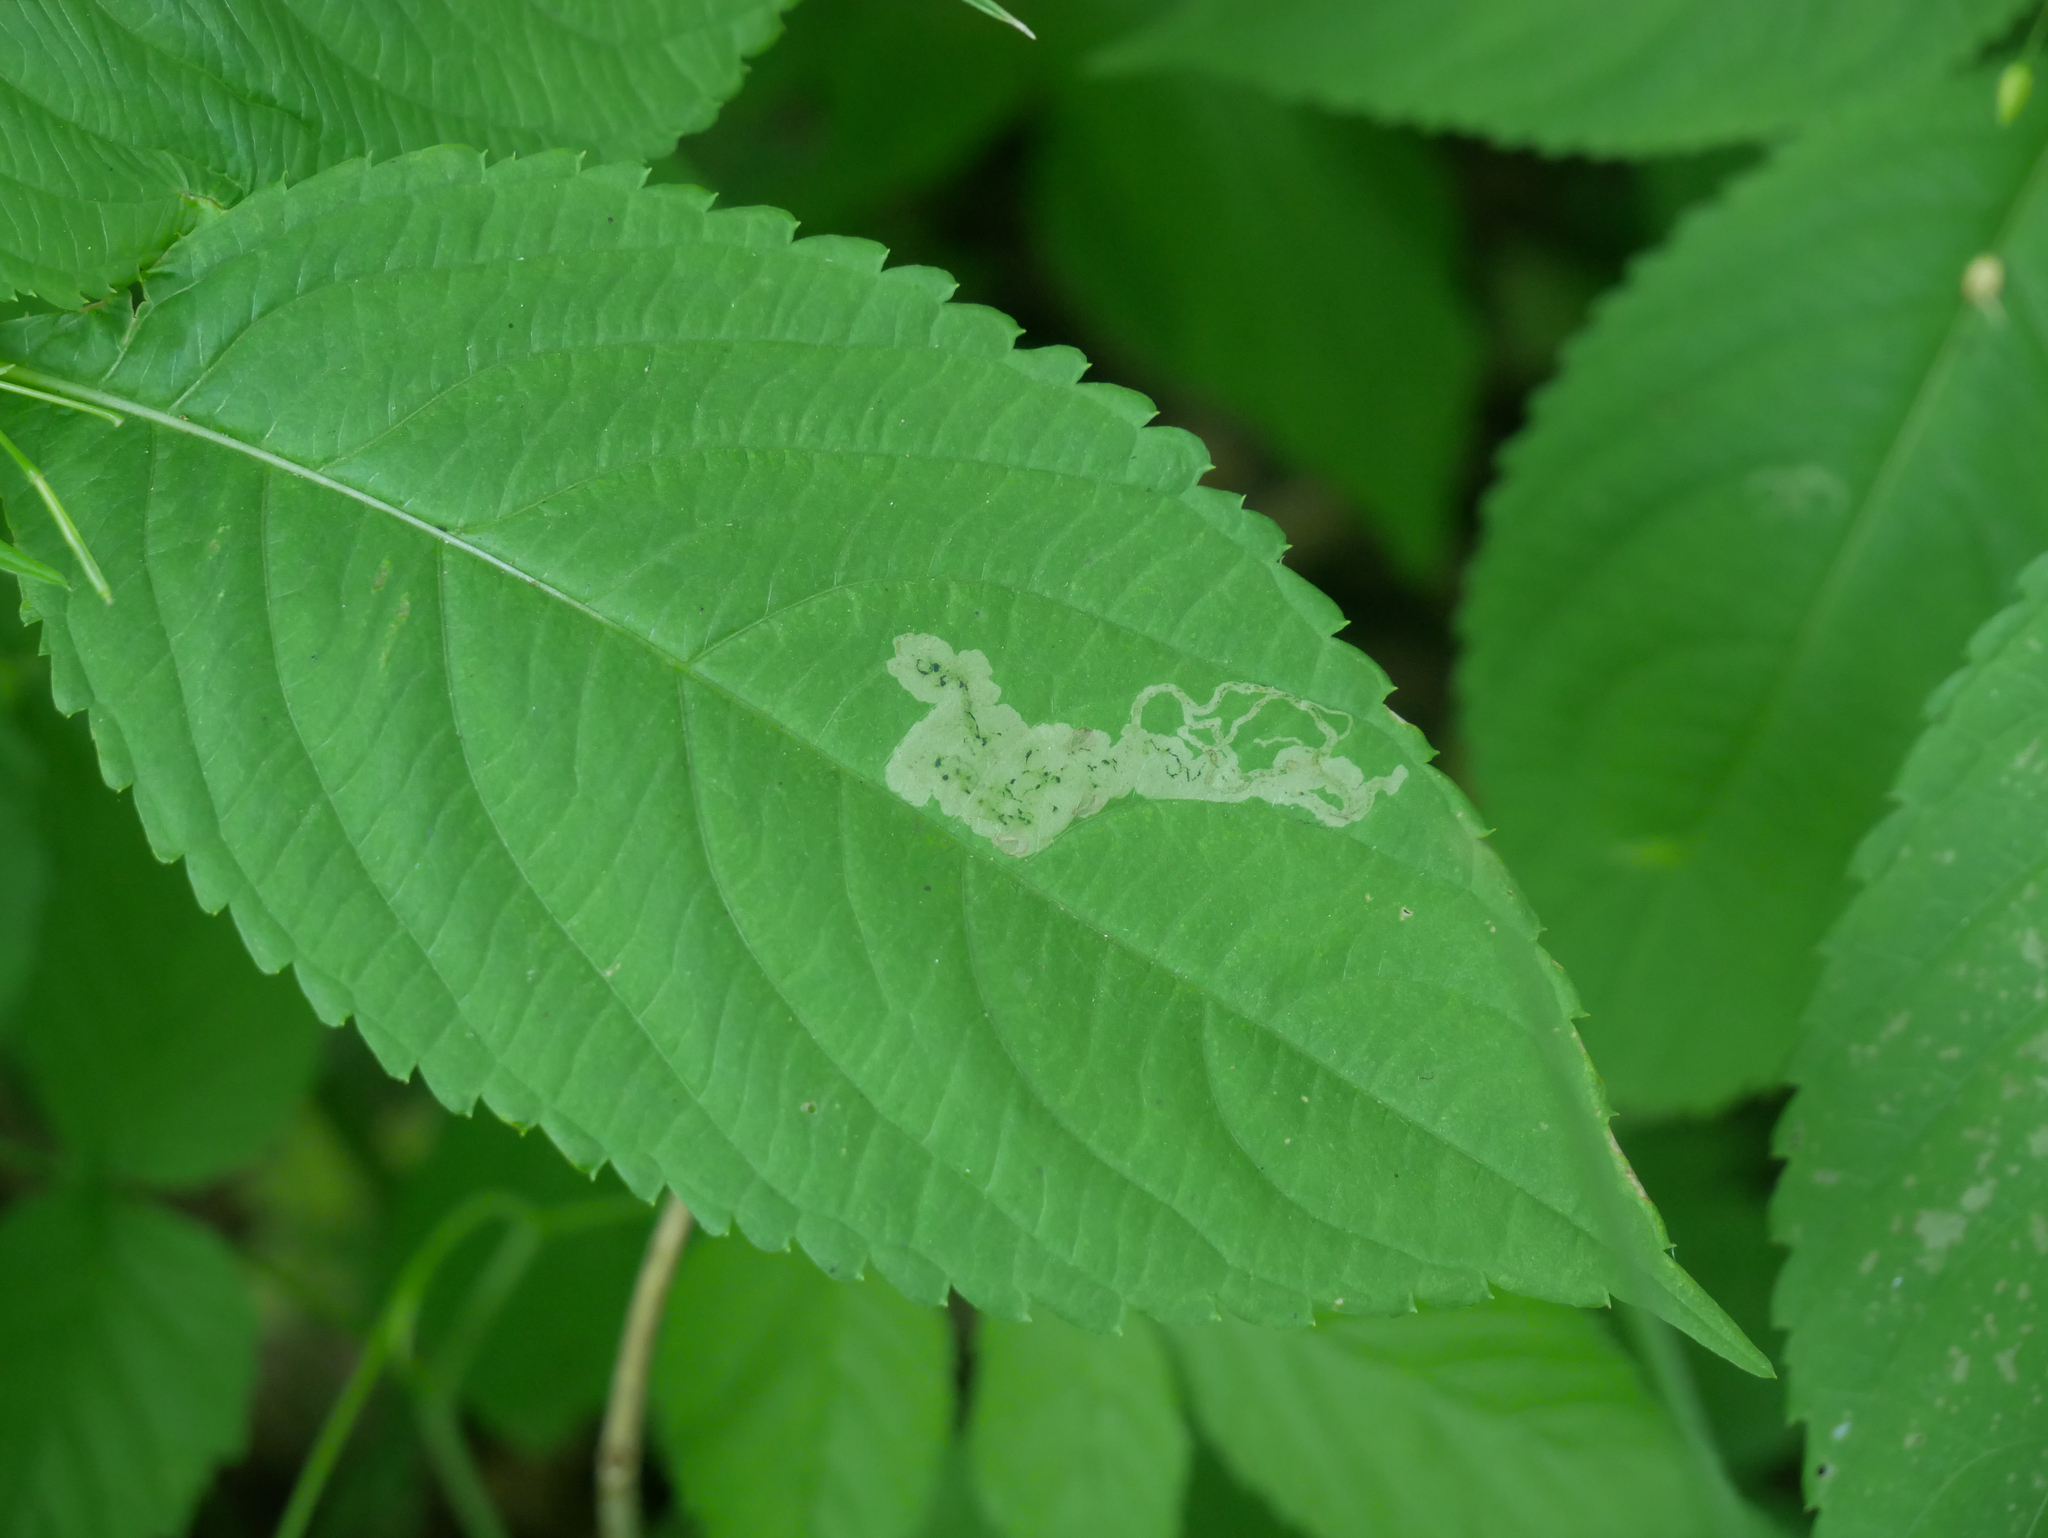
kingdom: Animalia
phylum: Arthropoda
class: Insecta
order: Diptera
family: Agromyzidae
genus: Phytoliriomyza
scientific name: Phytoliriomyza melampyga
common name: Jewelweed leaf-miner fly
